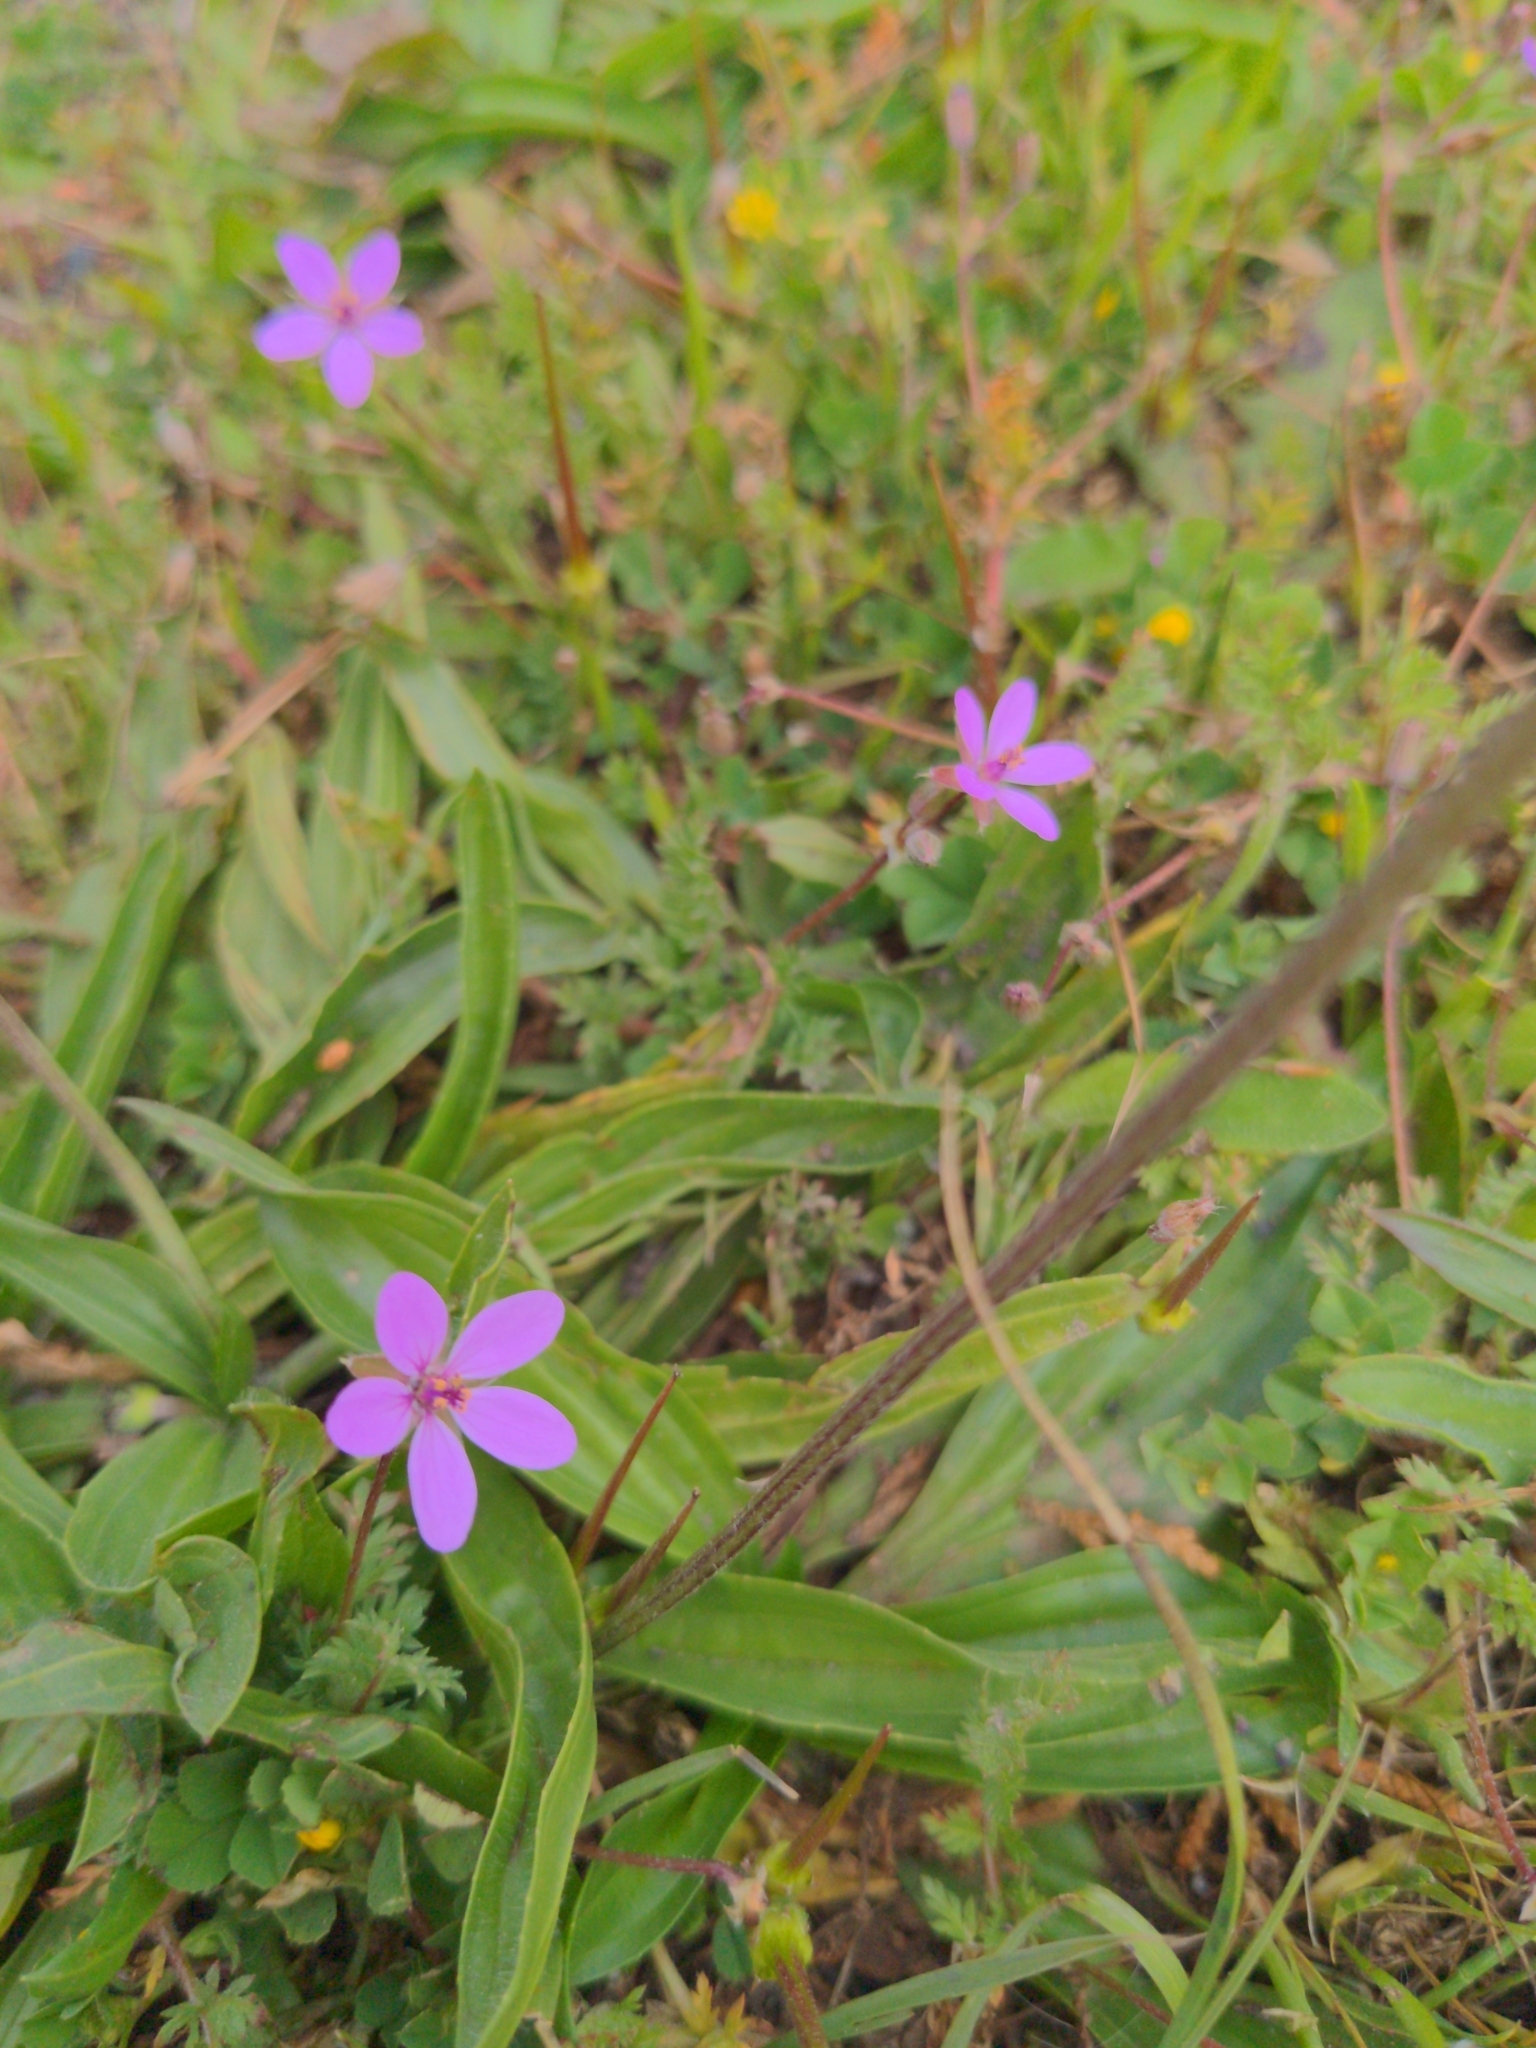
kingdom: Plantae
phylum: Tracheophyta
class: Magnoliopsida
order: Geraniales
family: Geraniaceae
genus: Erodium
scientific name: Erodium cicutarium
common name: Common stork's-bill
